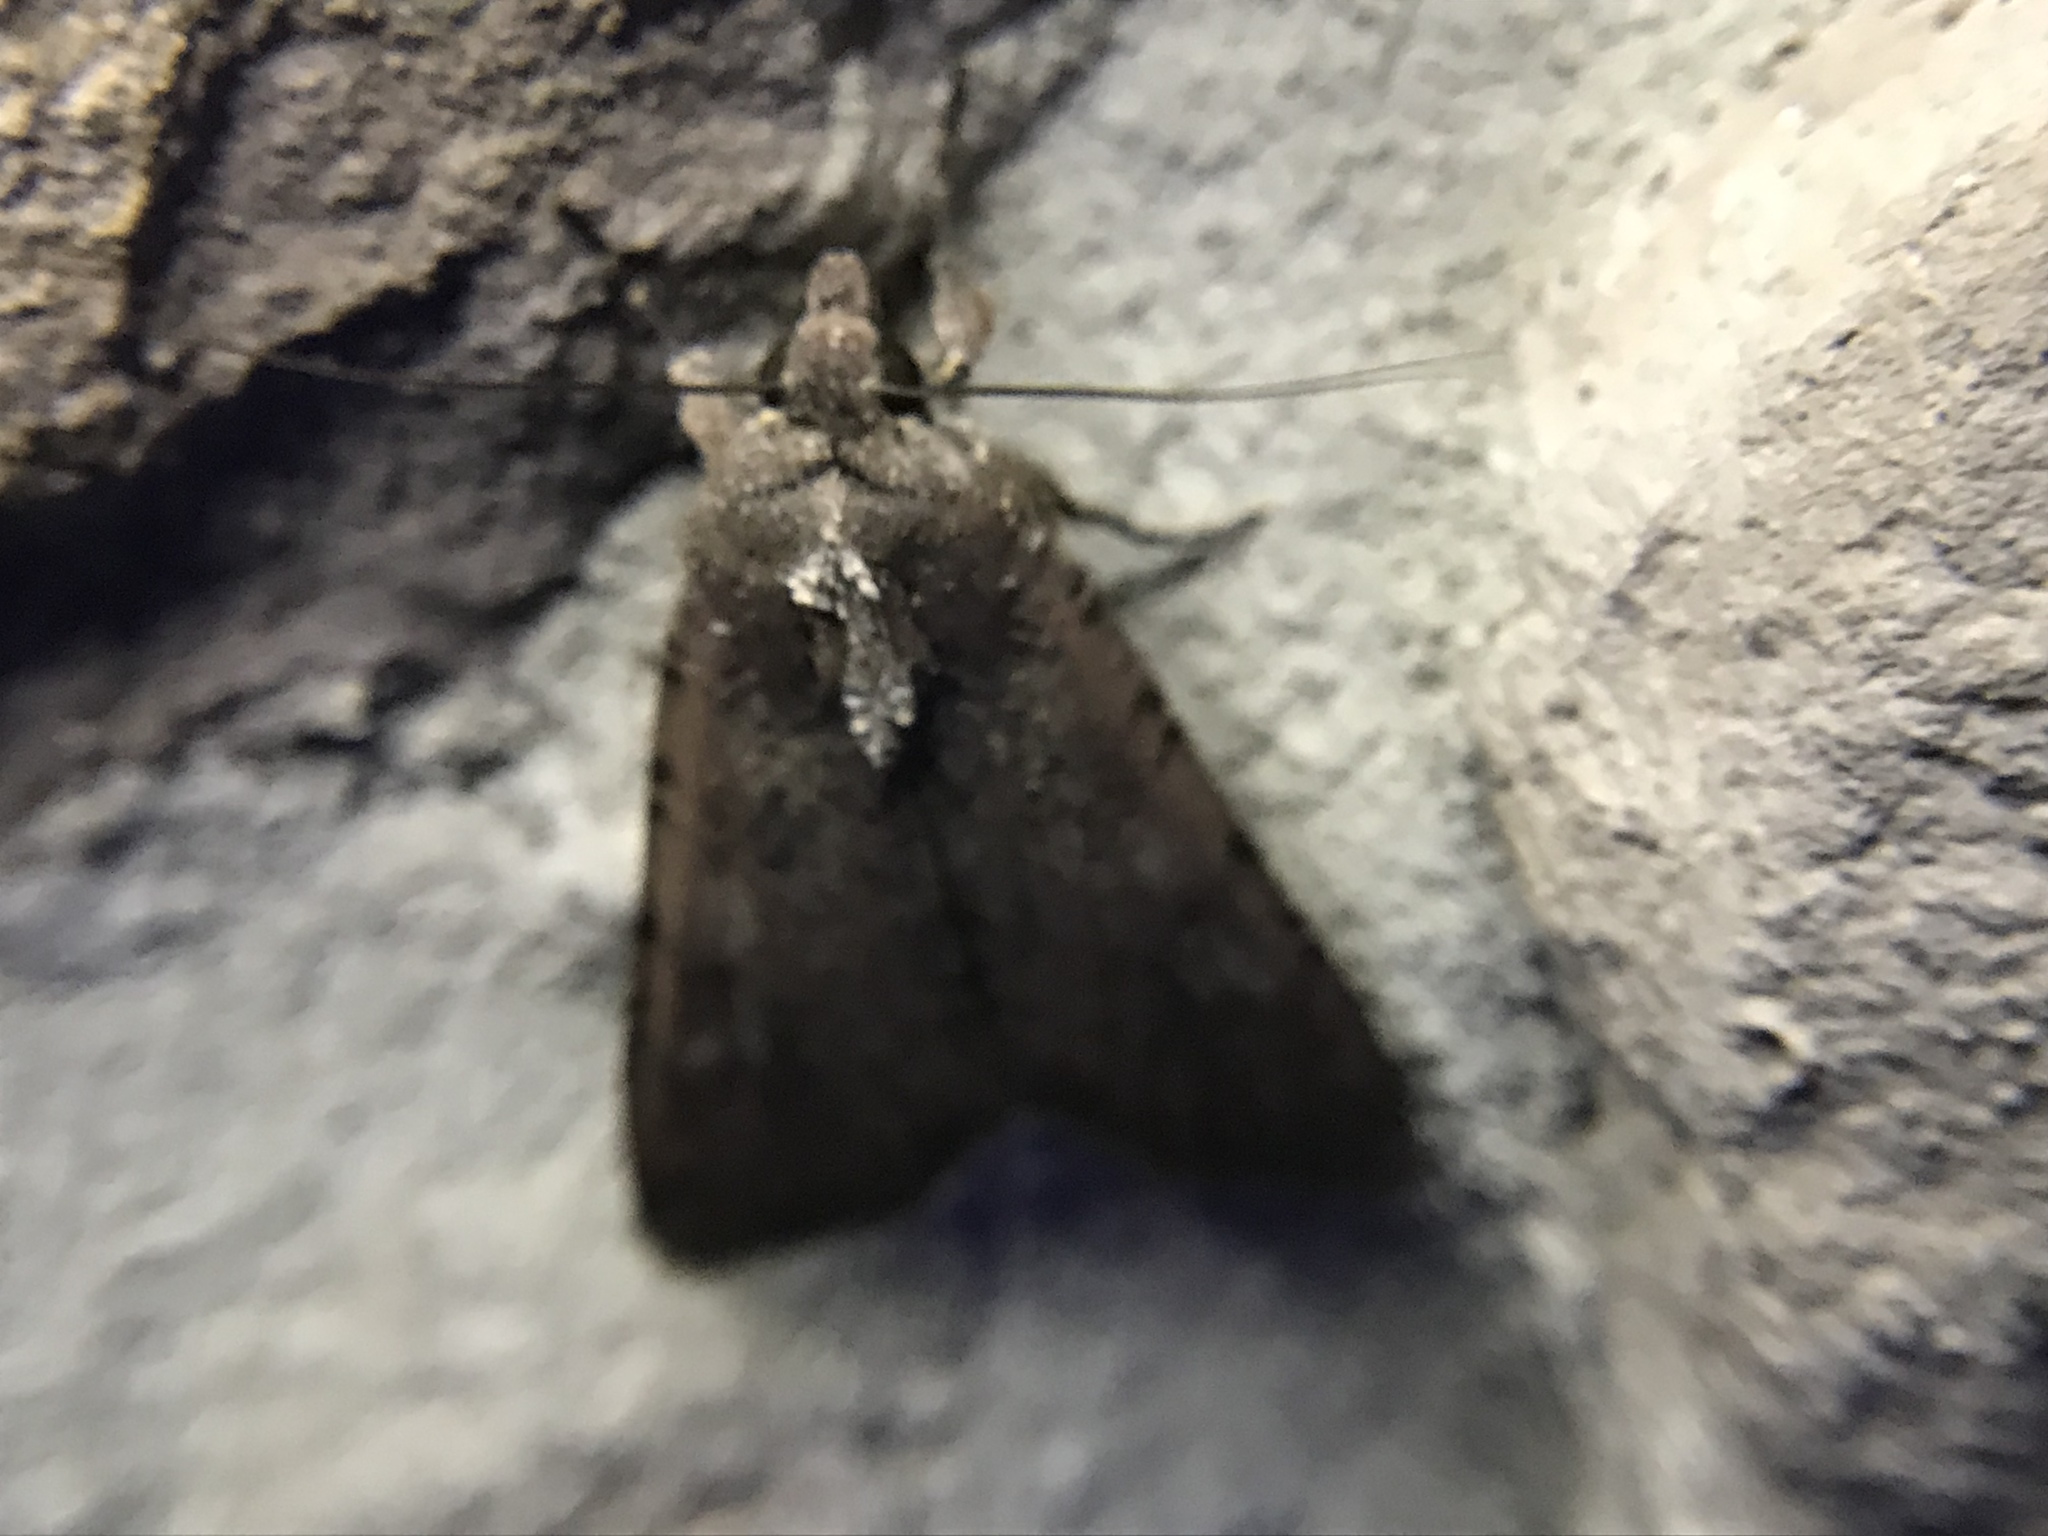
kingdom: Animalia
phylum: Arthropoda
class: Insecta
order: Lepidoptera
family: Noctuidae
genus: Peridroma
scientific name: Peridroma saucia
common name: Pearly underwing
